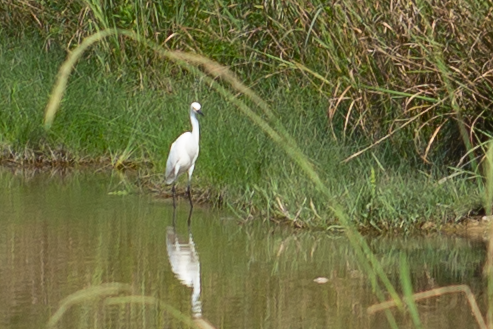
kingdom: Animalia
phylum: Chordata
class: Aves
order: Pelecaniformes
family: Ardeidae
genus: Egretta
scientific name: Egretta thula
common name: Snowy egret
